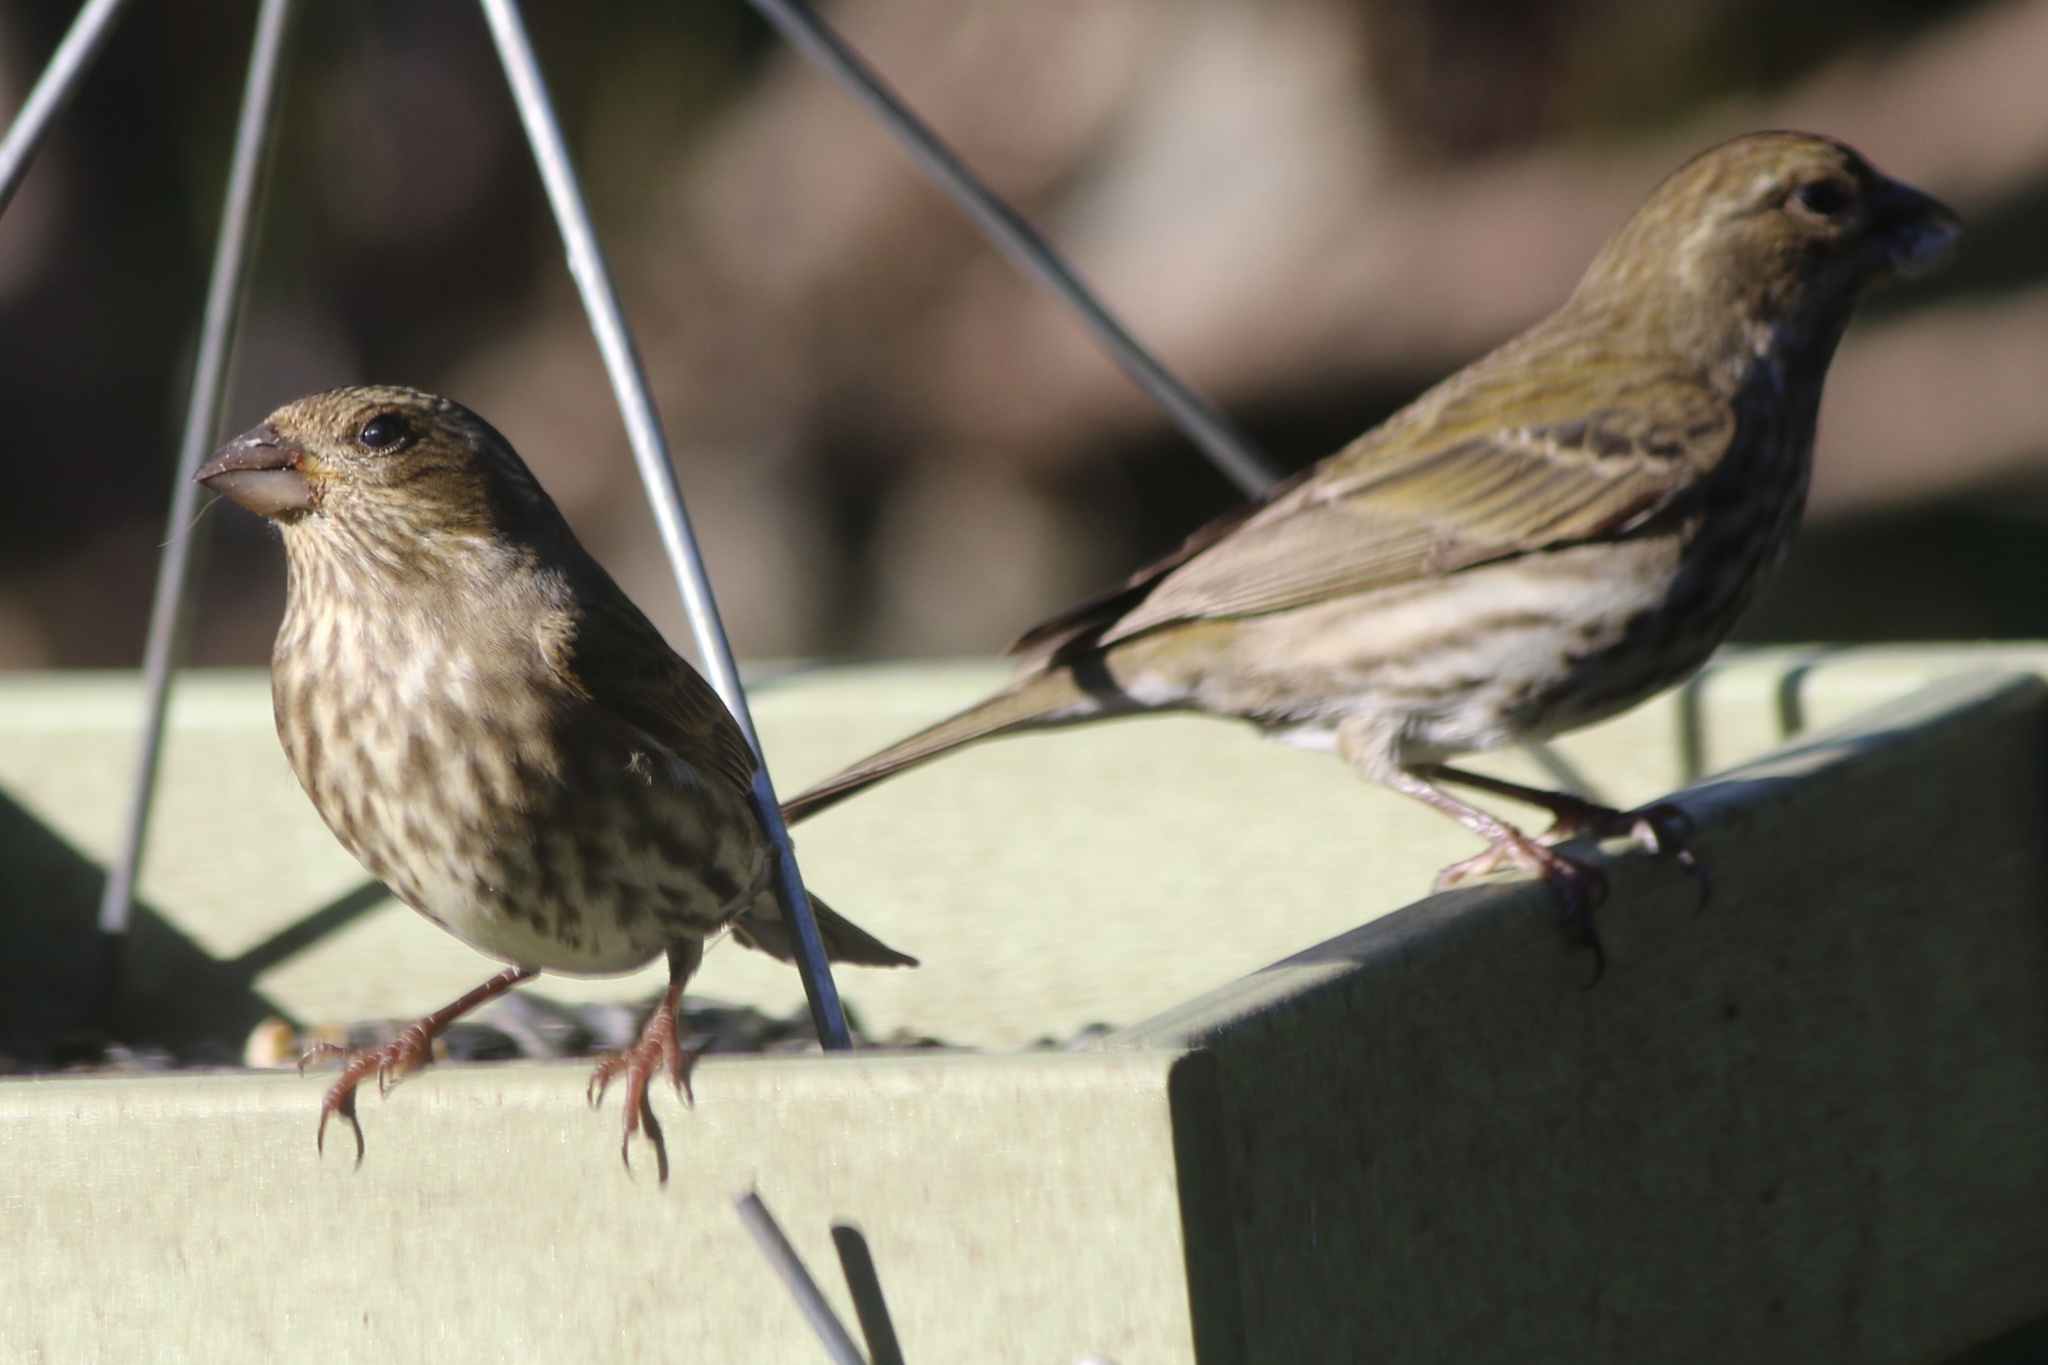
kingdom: Animalia
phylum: Chordata
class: Aves
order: Passeriformes
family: Fringillidae
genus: Haemorhous
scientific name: Haemorhous purpureus
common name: Purple finch
